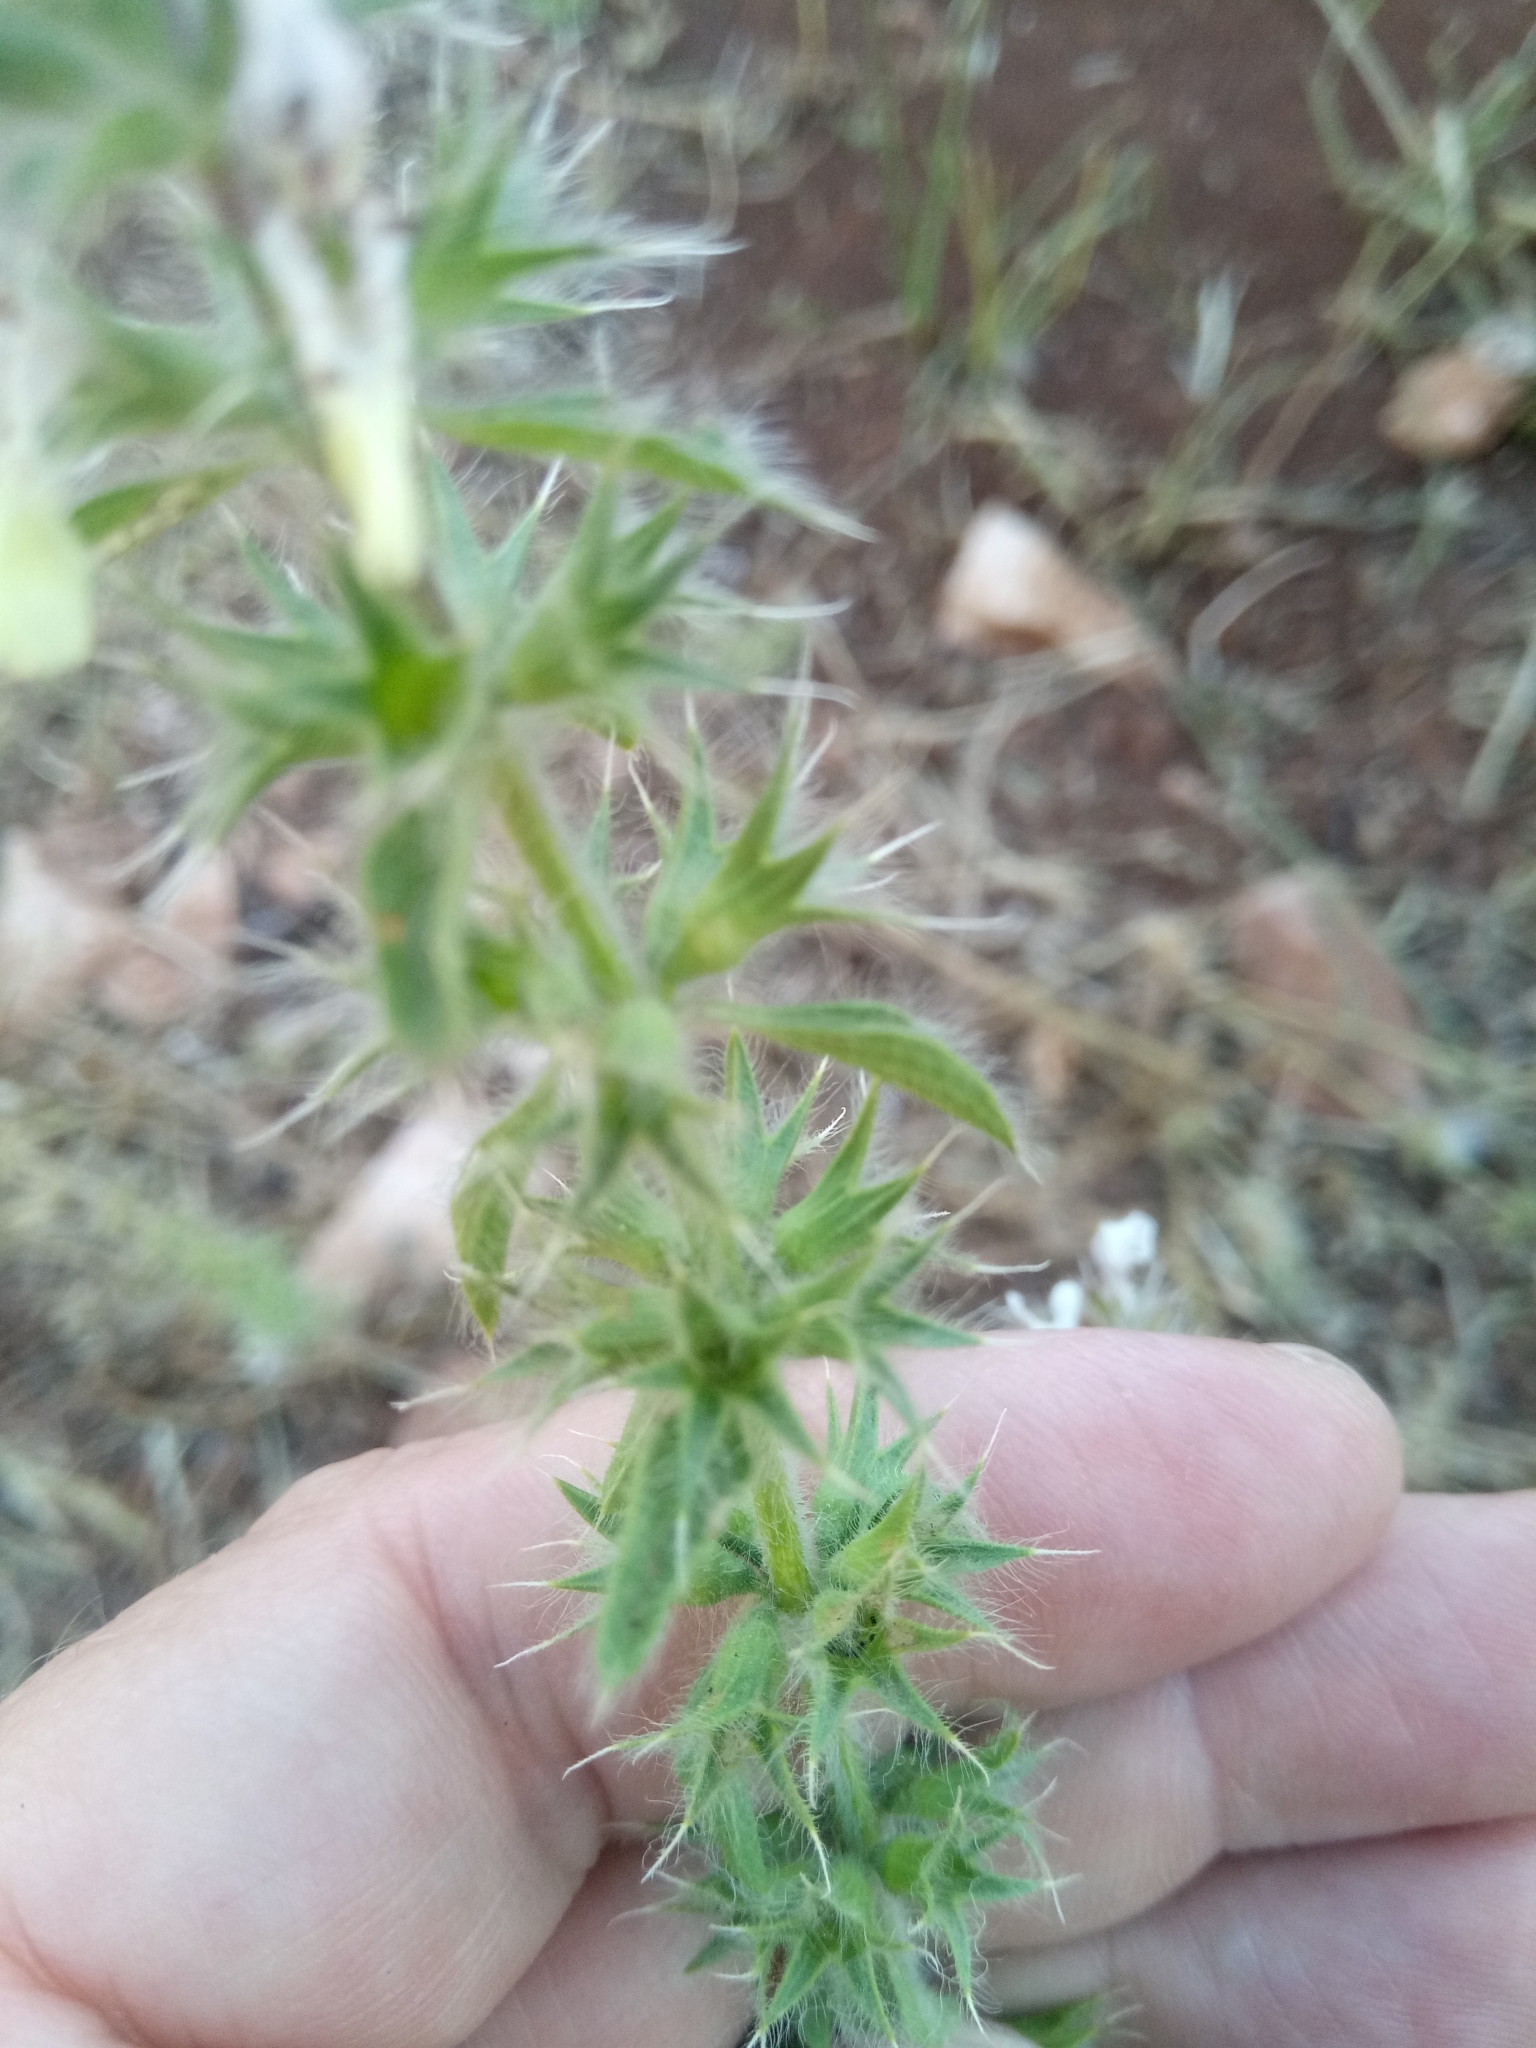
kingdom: Plantae
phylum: Tracheophyta
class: Magnoliopsida
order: Lamiales
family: Lamiaceae
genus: Stachys
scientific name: Stachys ocymastrum
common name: Italian hedgenettle
